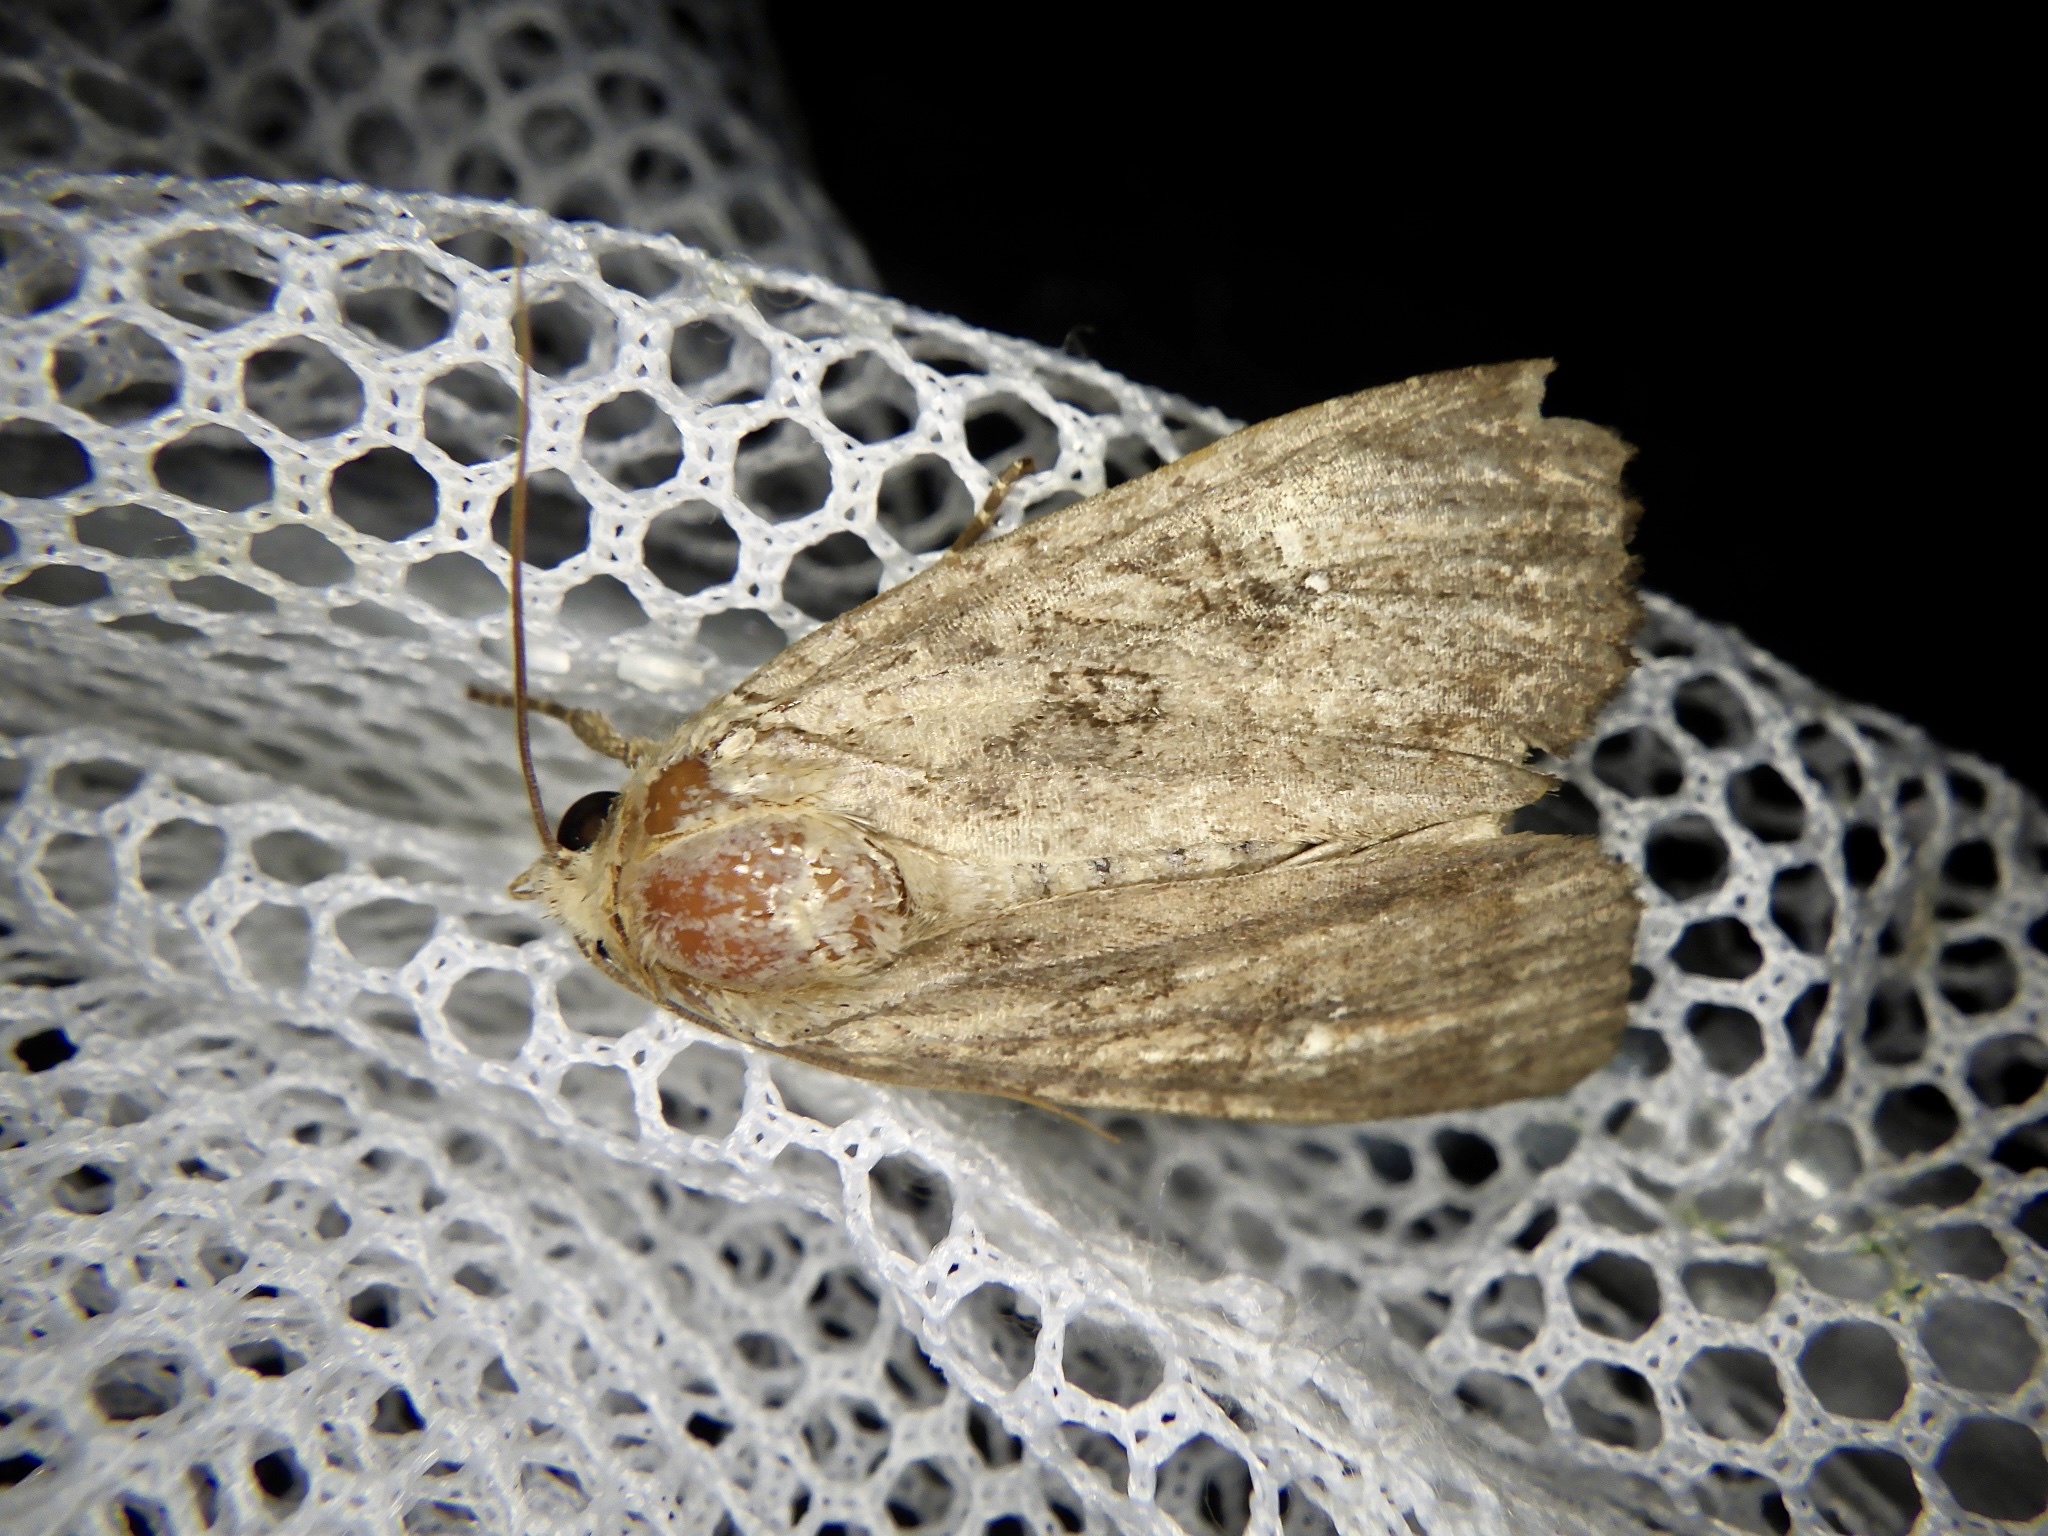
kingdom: Animalia
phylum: Arthropoda
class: Insecta
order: Lepidoptera
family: Noctuidae
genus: Apamea
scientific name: Apamea aquila
